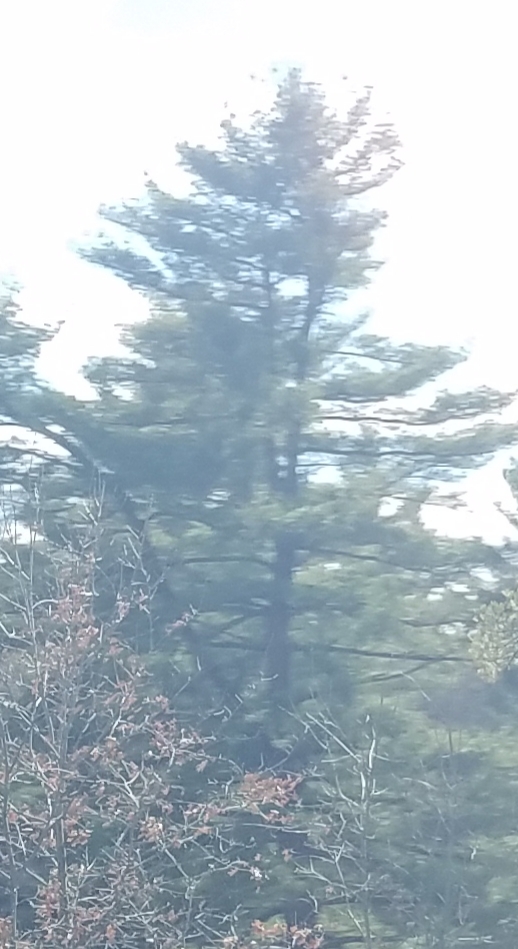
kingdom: Plantae
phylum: Tracheophyta
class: Pinopsida
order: Pinales
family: Pinaceae
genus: Pinus
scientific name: Pinus strobus
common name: Weymouth pine
